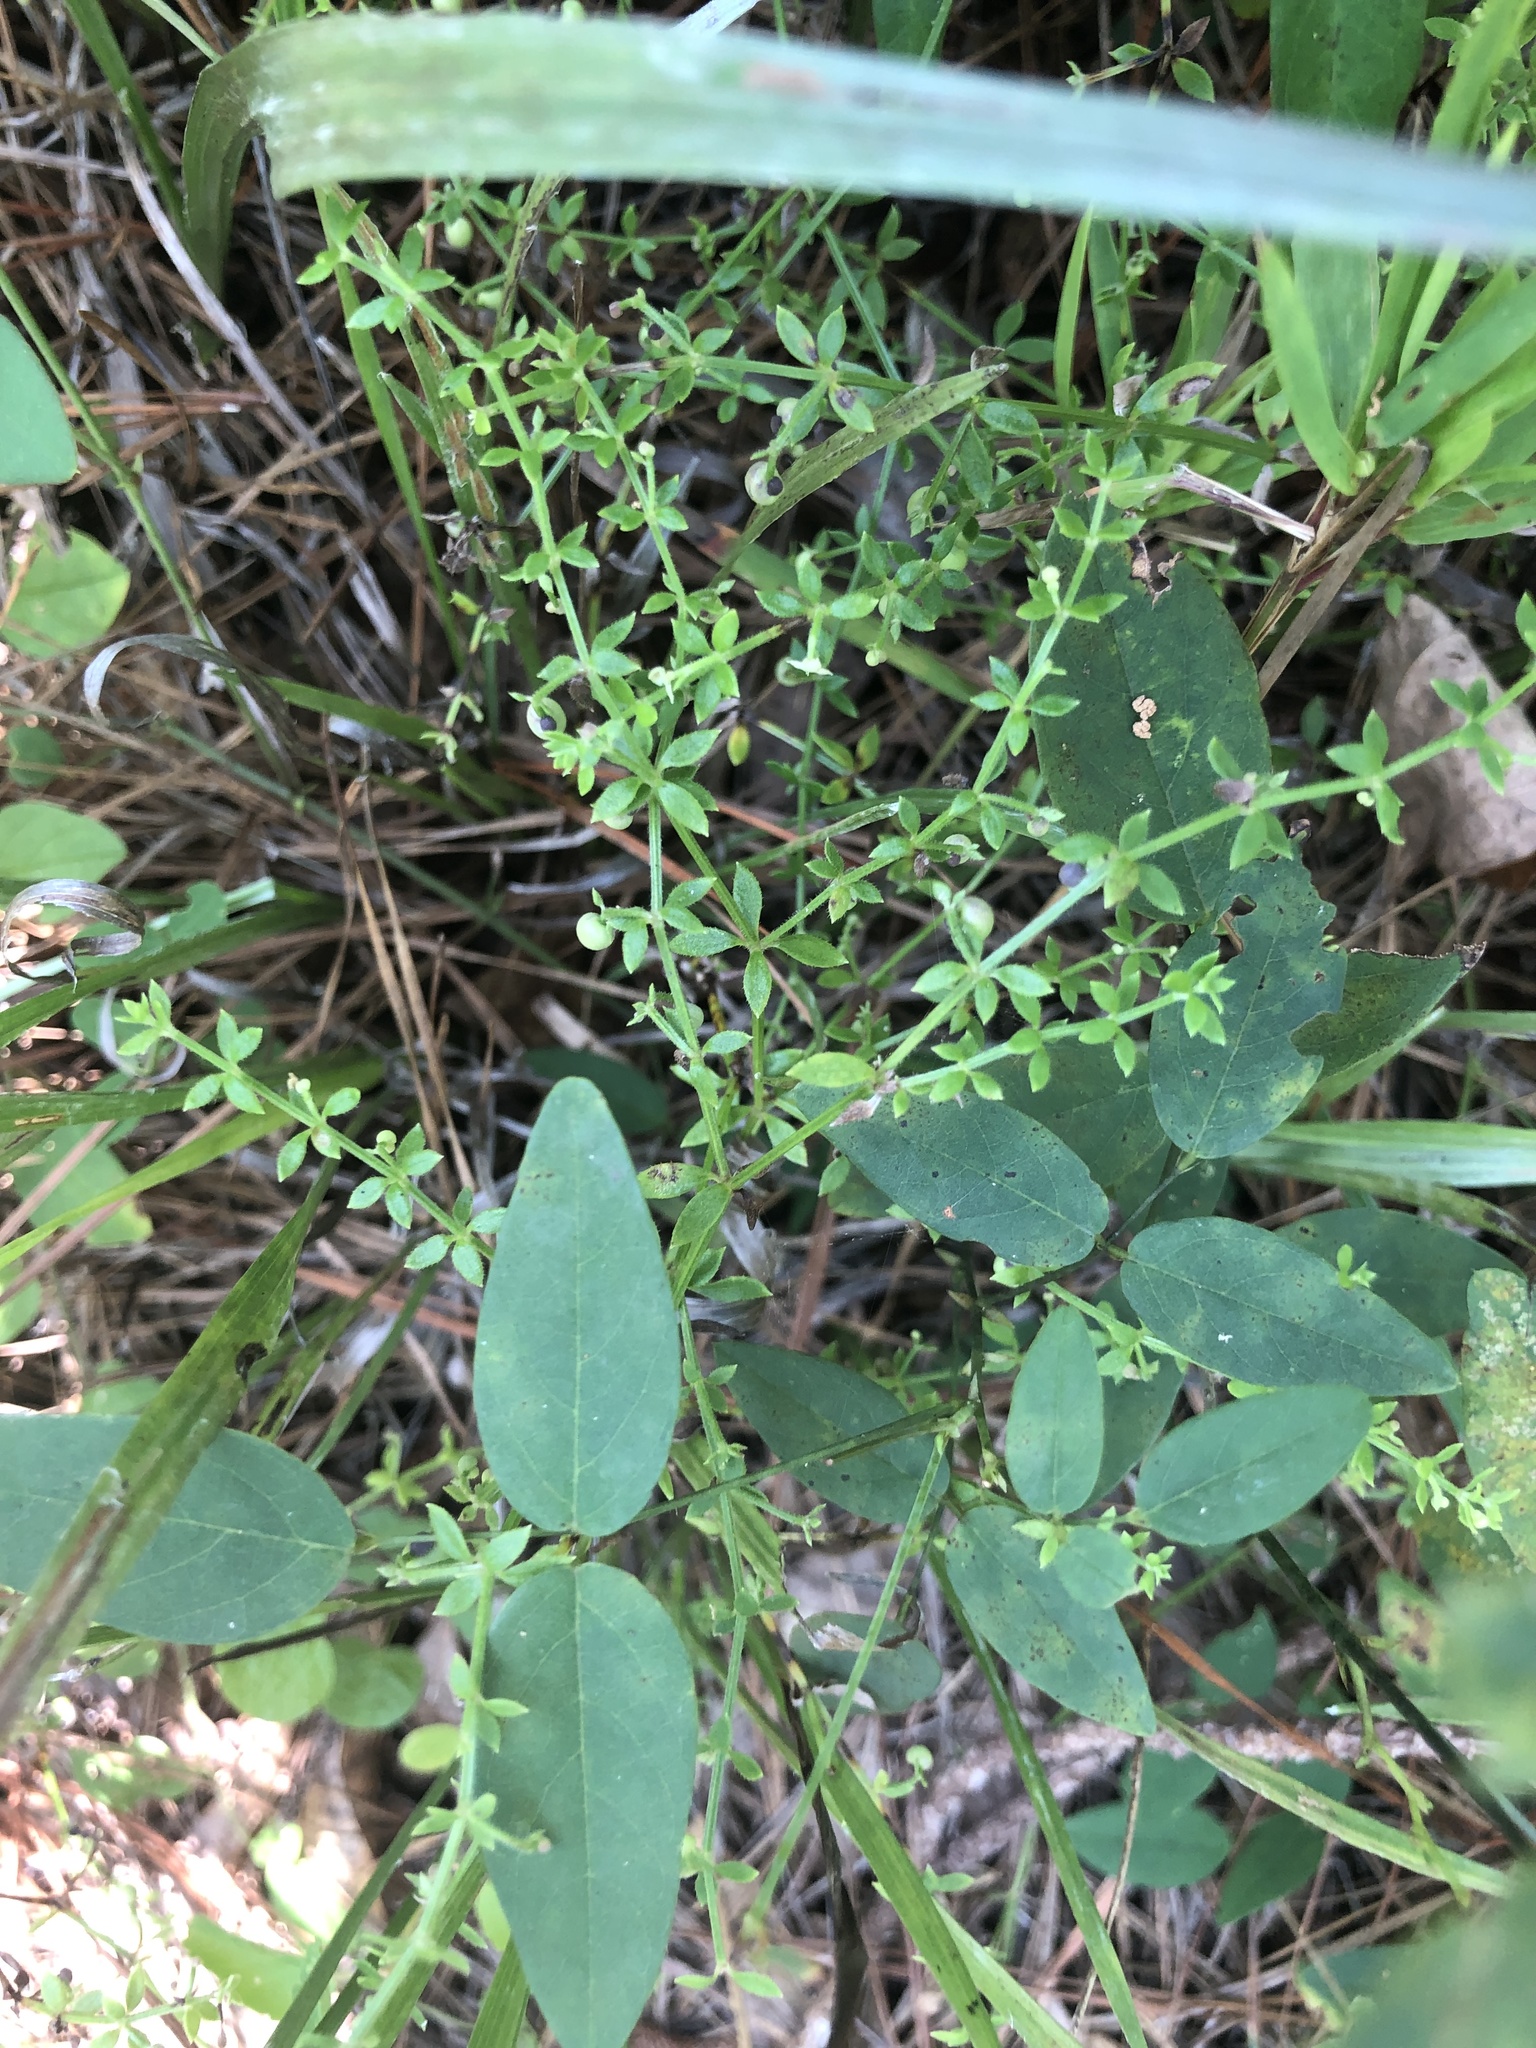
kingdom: Plantae
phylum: Tracheophyta
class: Magnoliopsida
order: Gentianales
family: Rubiaceae
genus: Galium
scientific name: Galium bermudense
